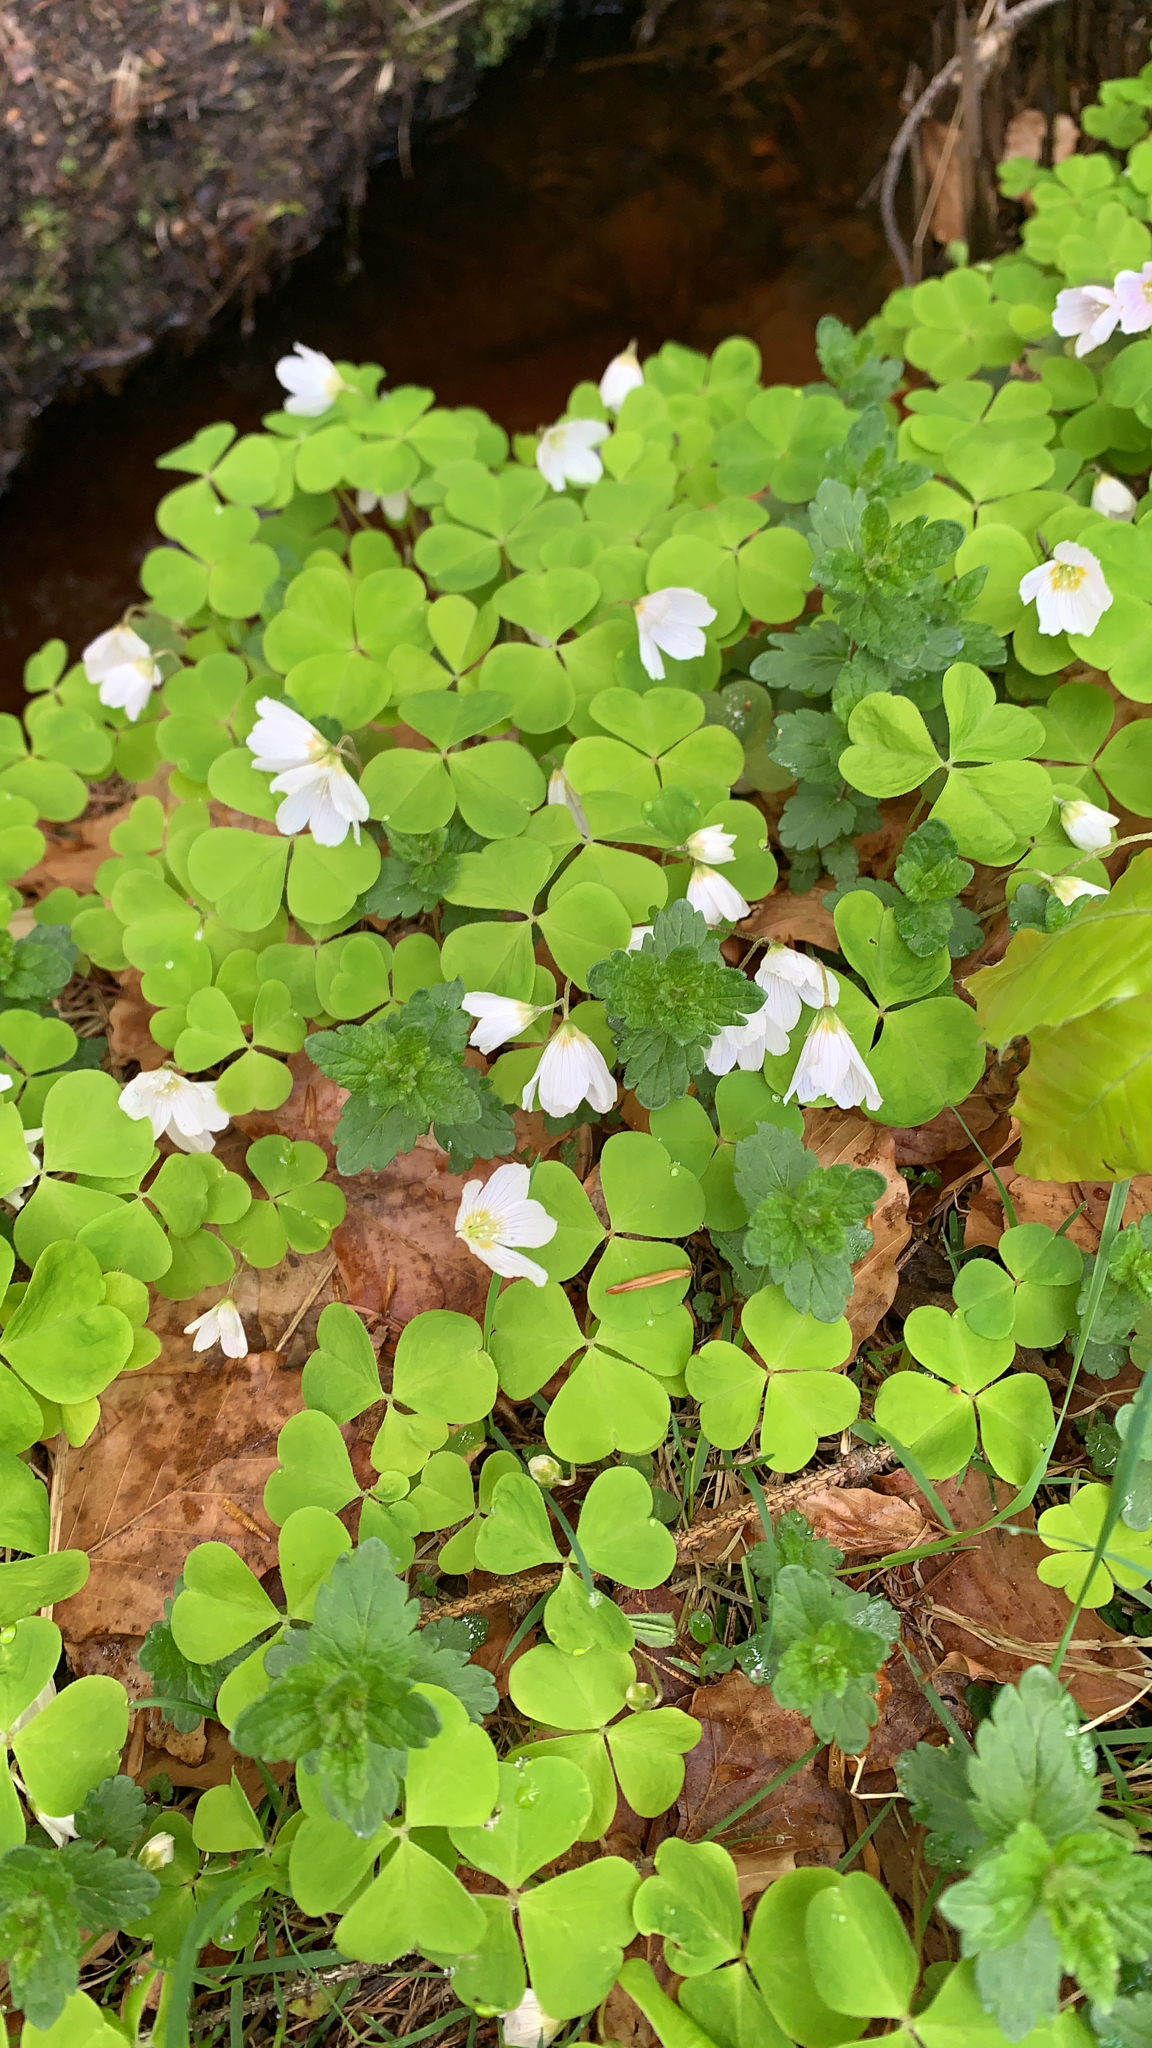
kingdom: Plantae
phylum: Tracheophyta
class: Magnoliopsida
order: Oxalidales
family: Oxalidaceae
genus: Oxalis
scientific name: Oxalis acetosella
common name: Wood-sorrel
